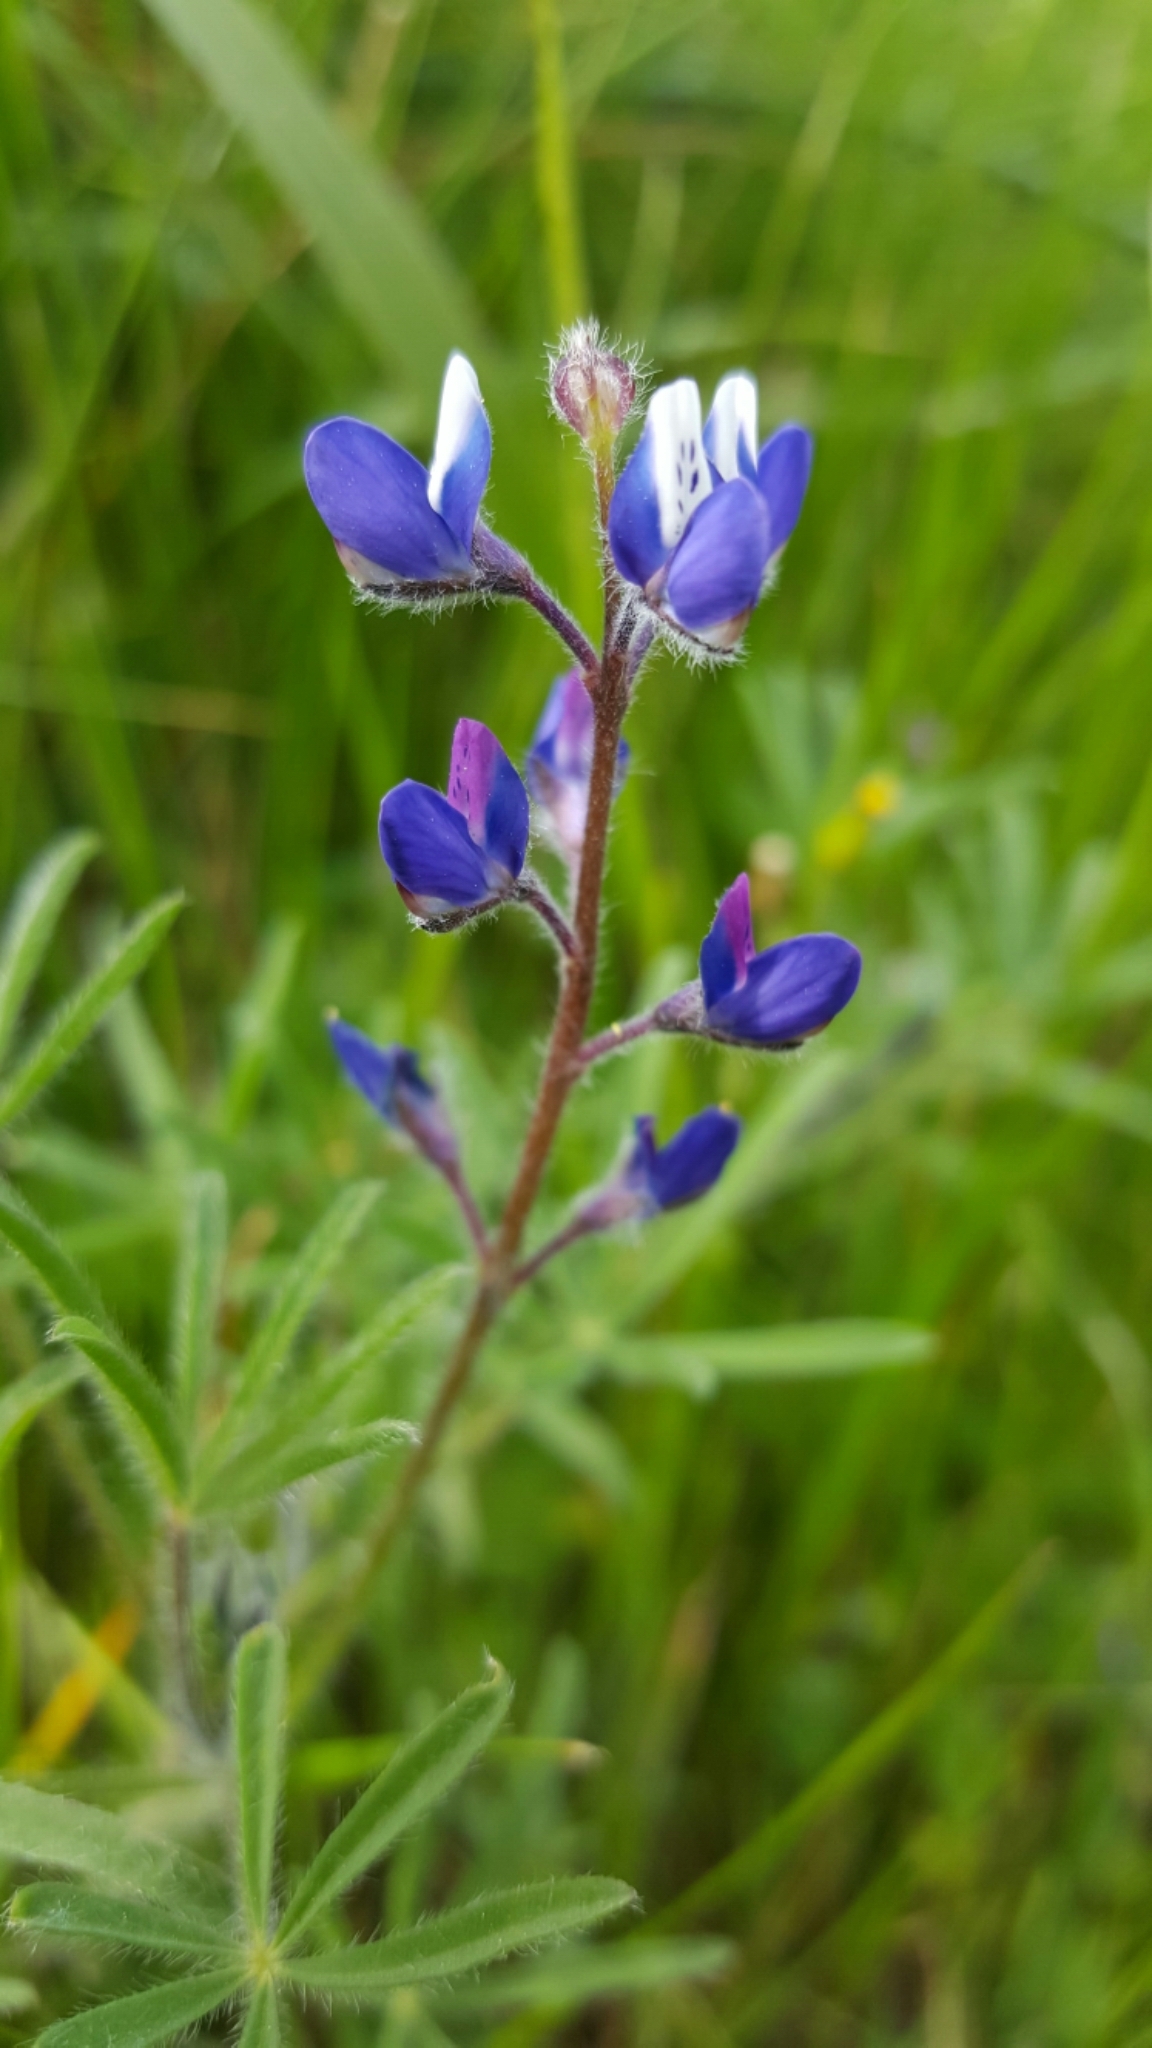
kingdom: Plantae
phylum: Tracheophyta
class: Magnoliopsida
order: Fabales
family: Fabaceae
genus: Lupinus
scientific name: Lupinus bicolor
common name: Miniature lupine
